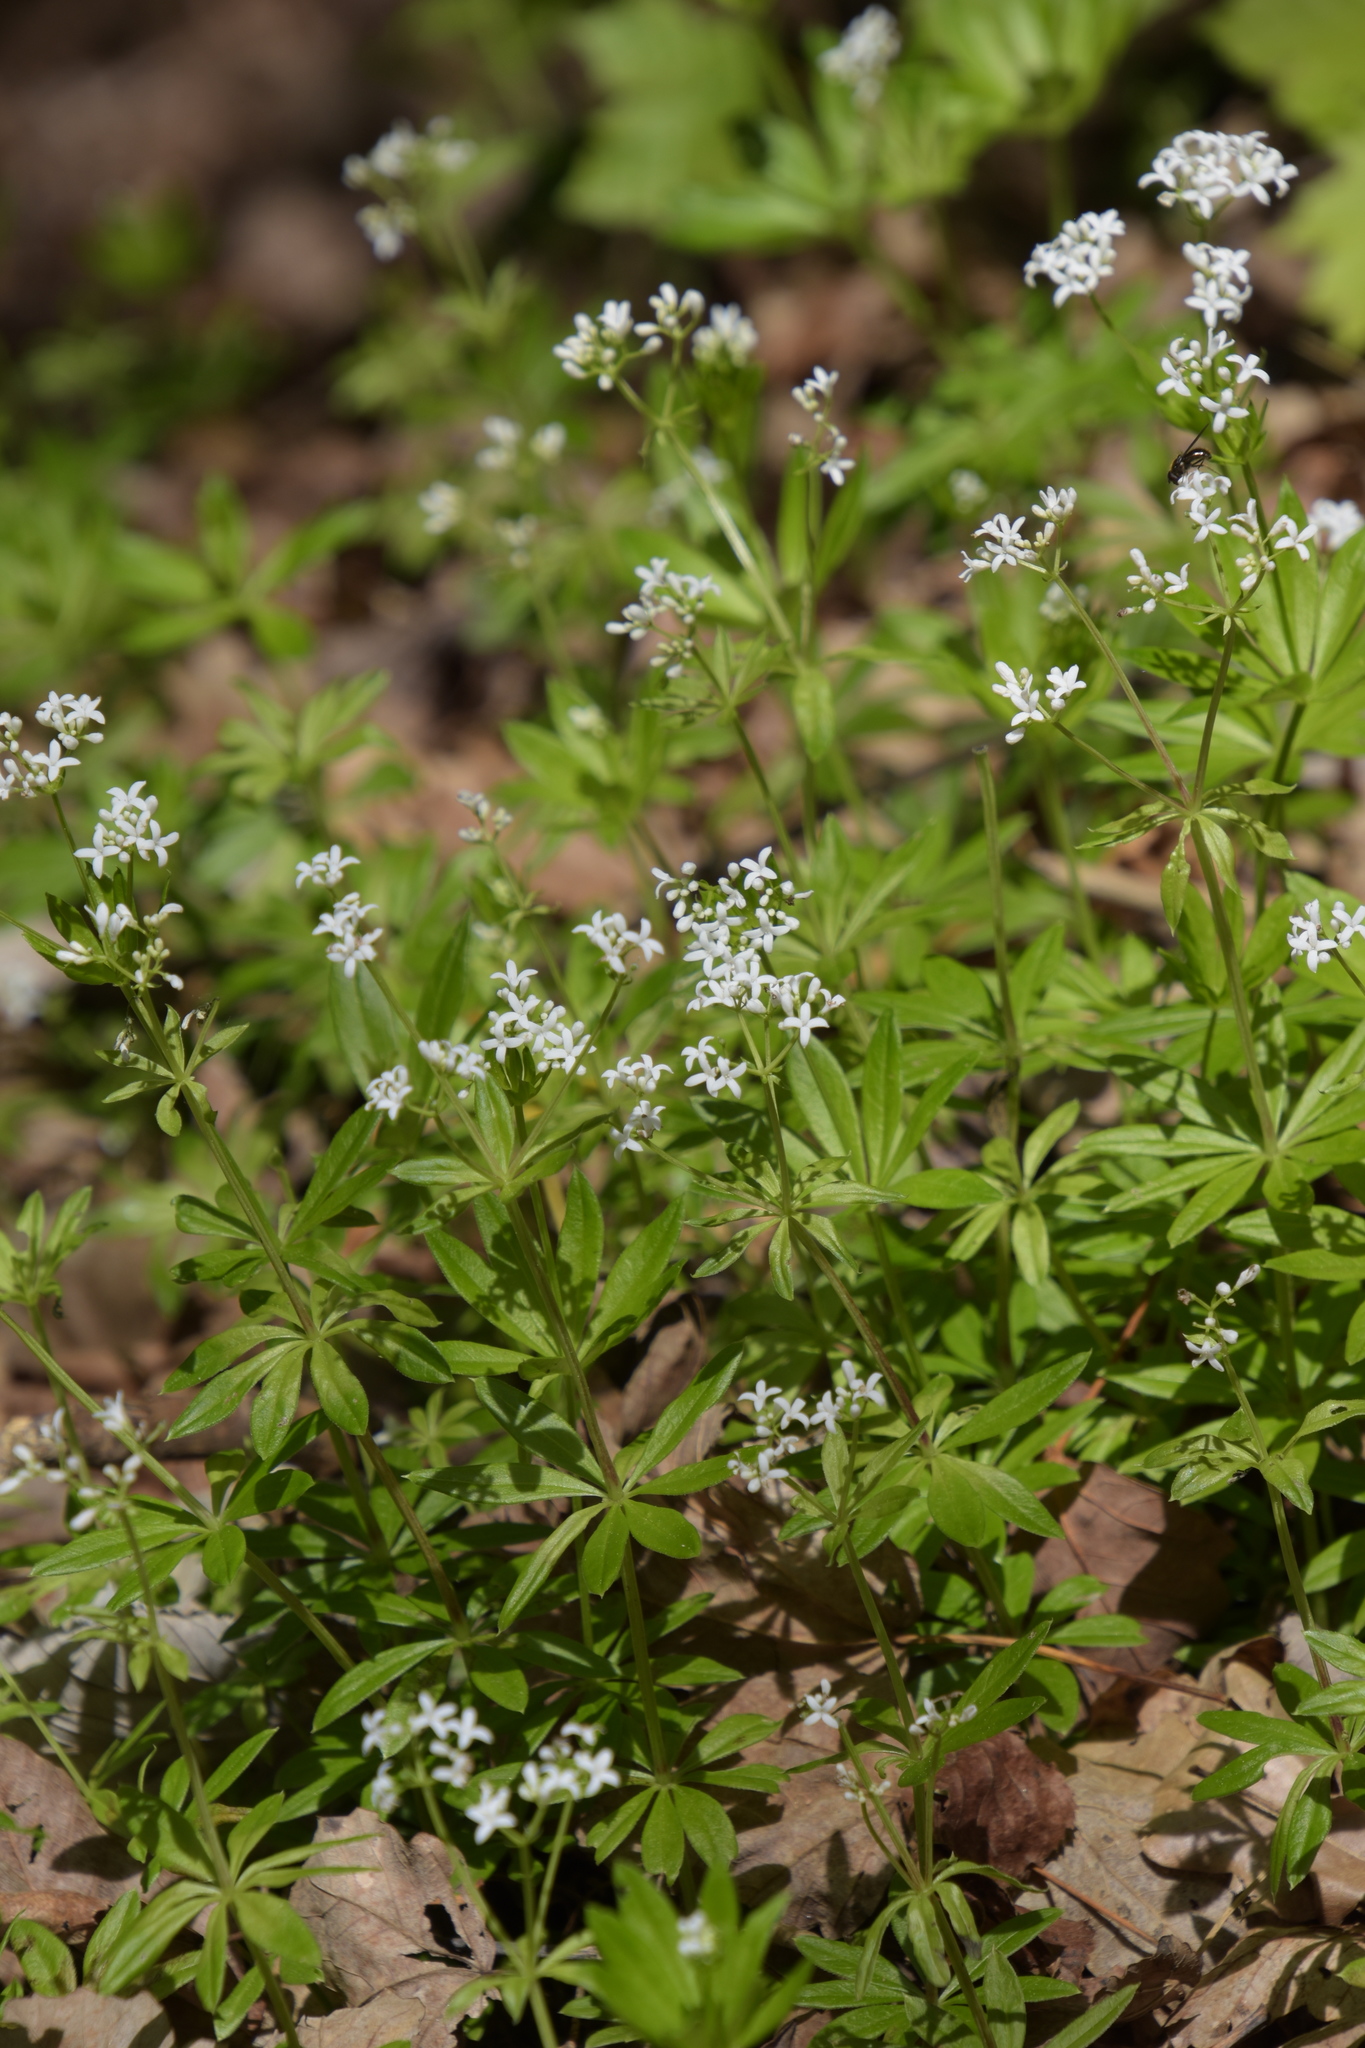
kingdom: Plantae
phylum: Tracheophyta
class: Magnoliopsida
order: Gentianales
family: Rubiaceae
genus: Galium
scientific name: Galium odoratum
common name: Sweet woodruff
